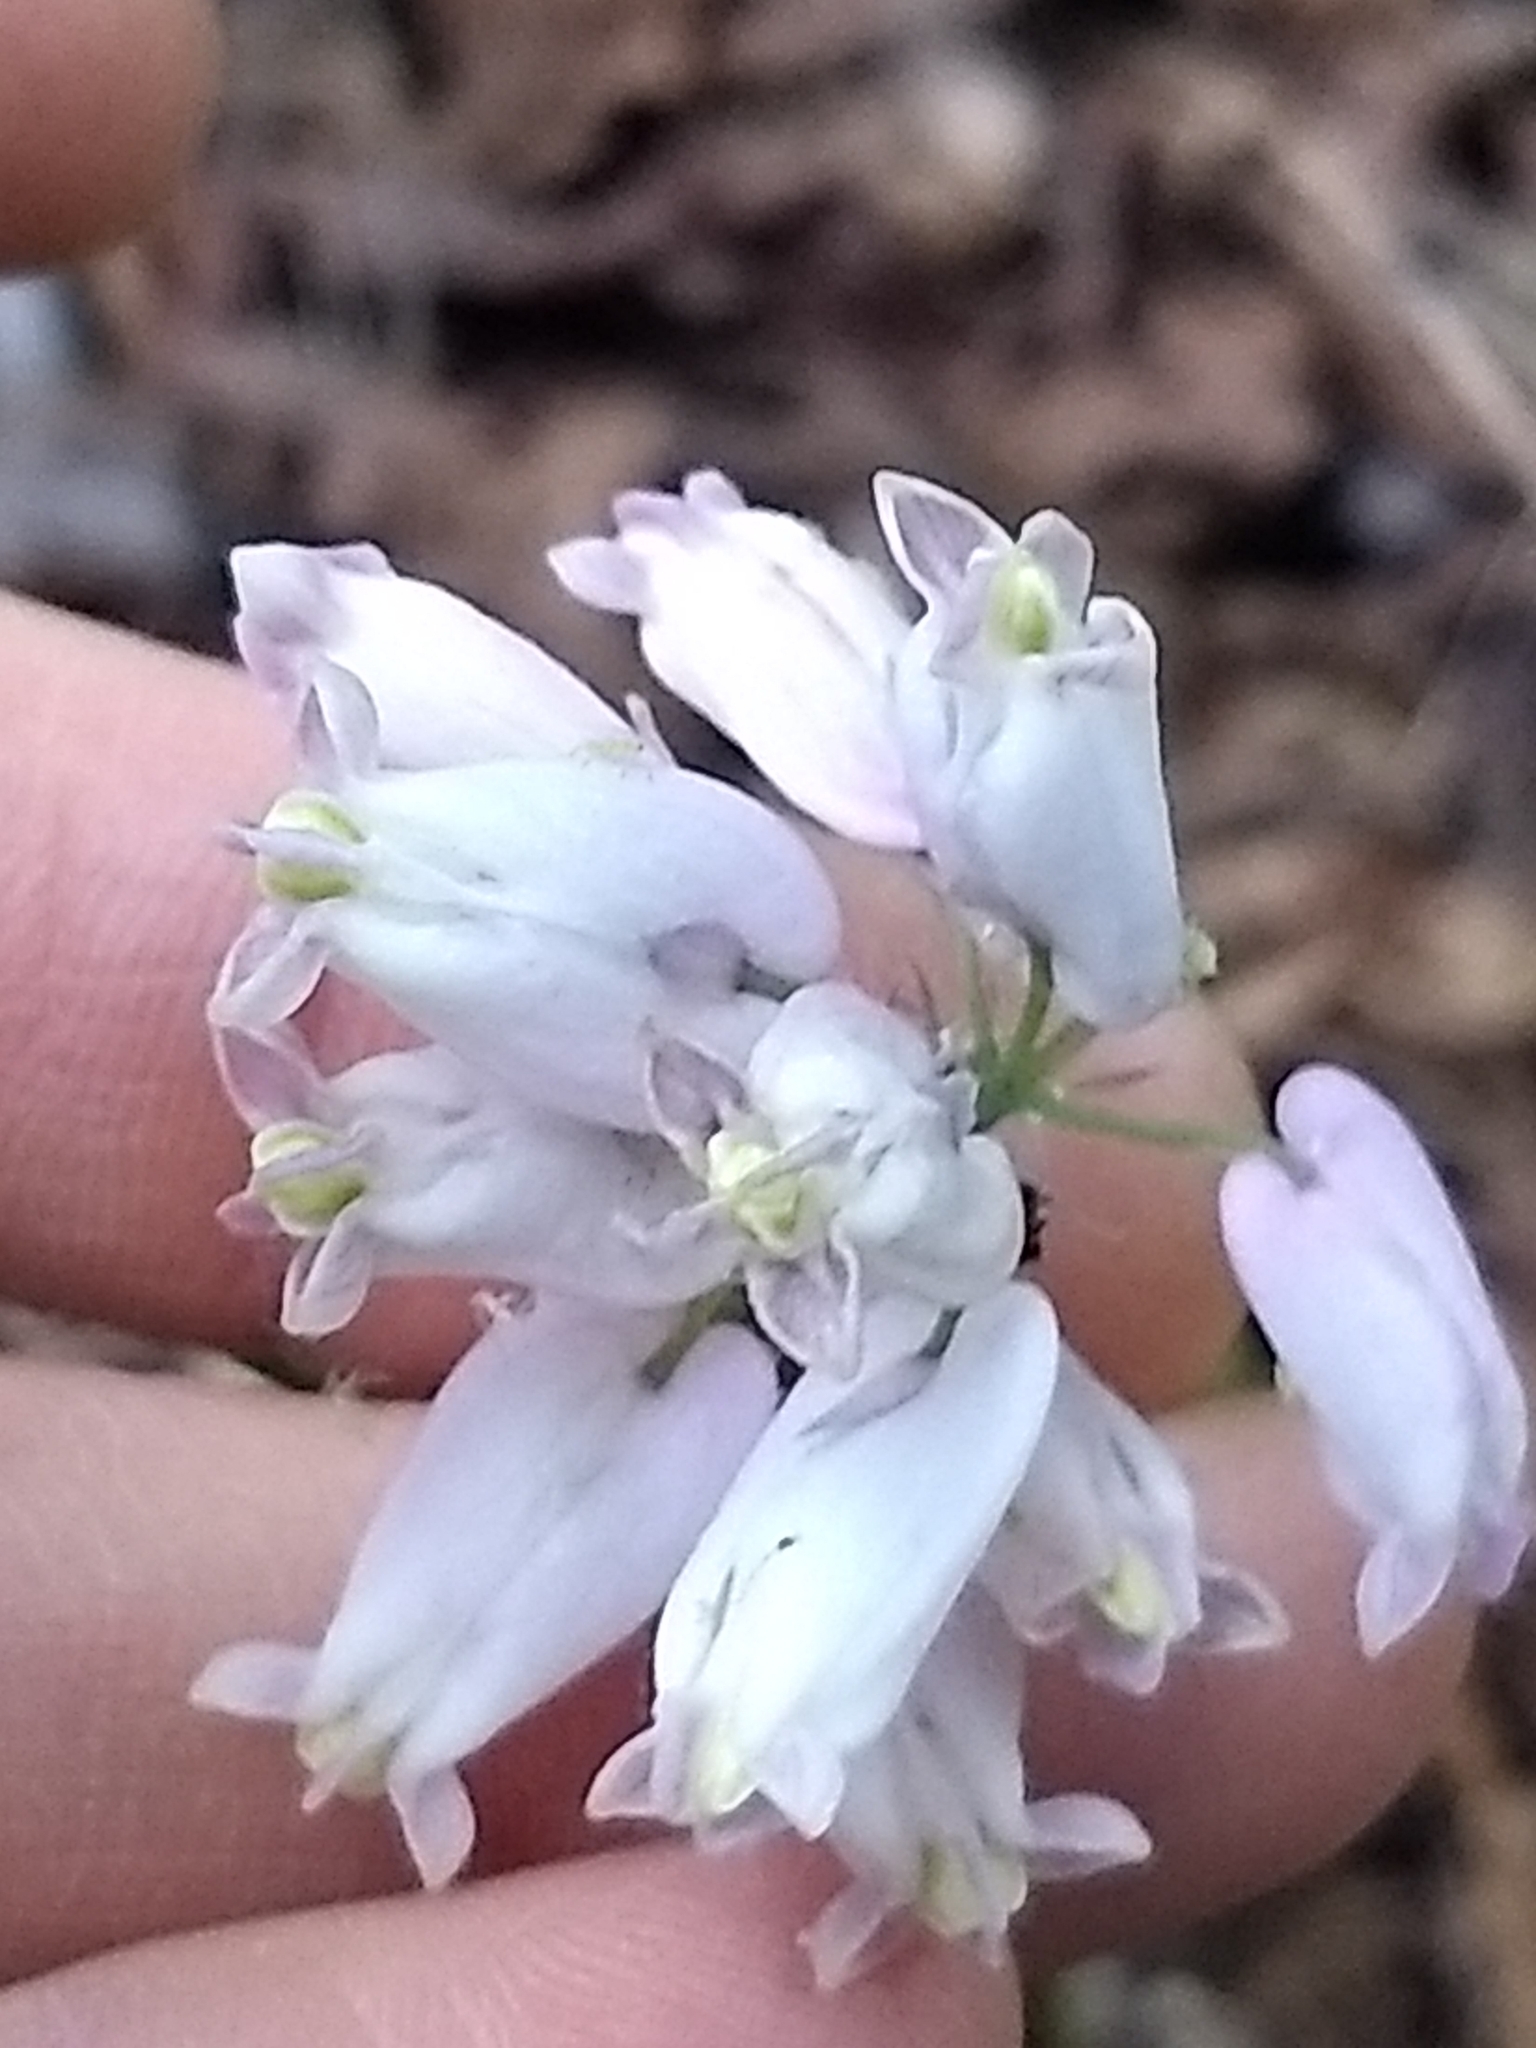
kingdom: Plantae
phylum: Tracheophyta
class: Magnoliopsida
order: Ranunculales
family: Papaveraceae
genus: Dicentra
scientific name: Dicentra formosa
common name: Bleeding-heart
